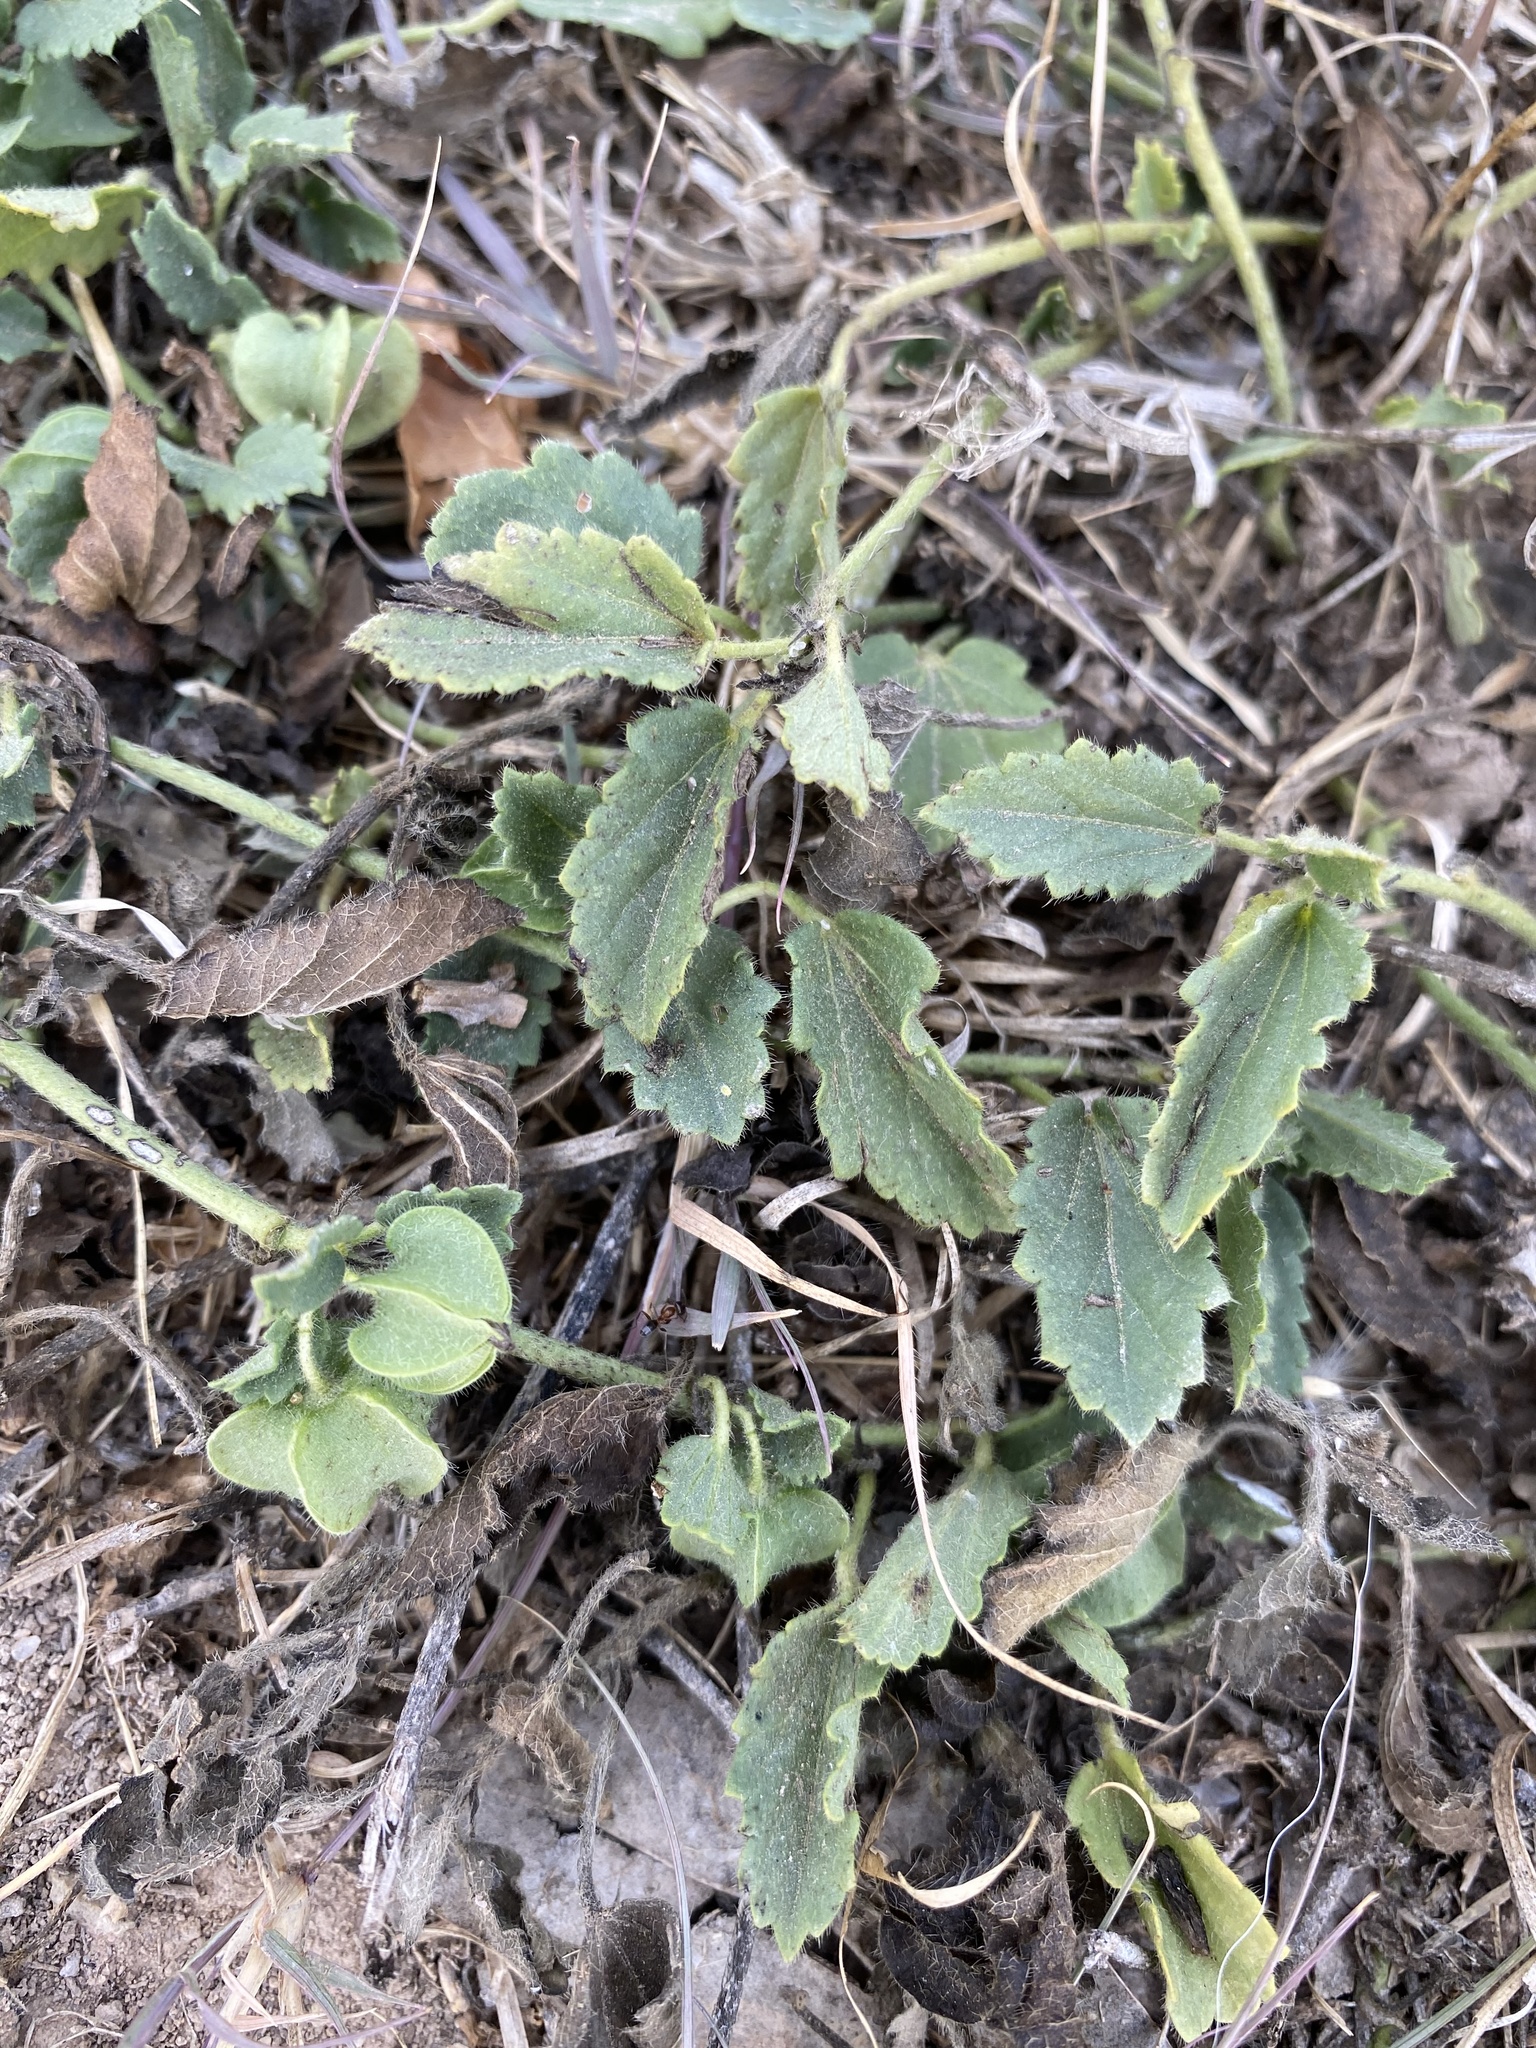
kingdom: Plantae
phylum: Tracheophyta
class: Magnoliopsida
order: Malvales
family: Malvaceae
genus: Rhynchosida
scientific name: Rhynchosida physocalyx
